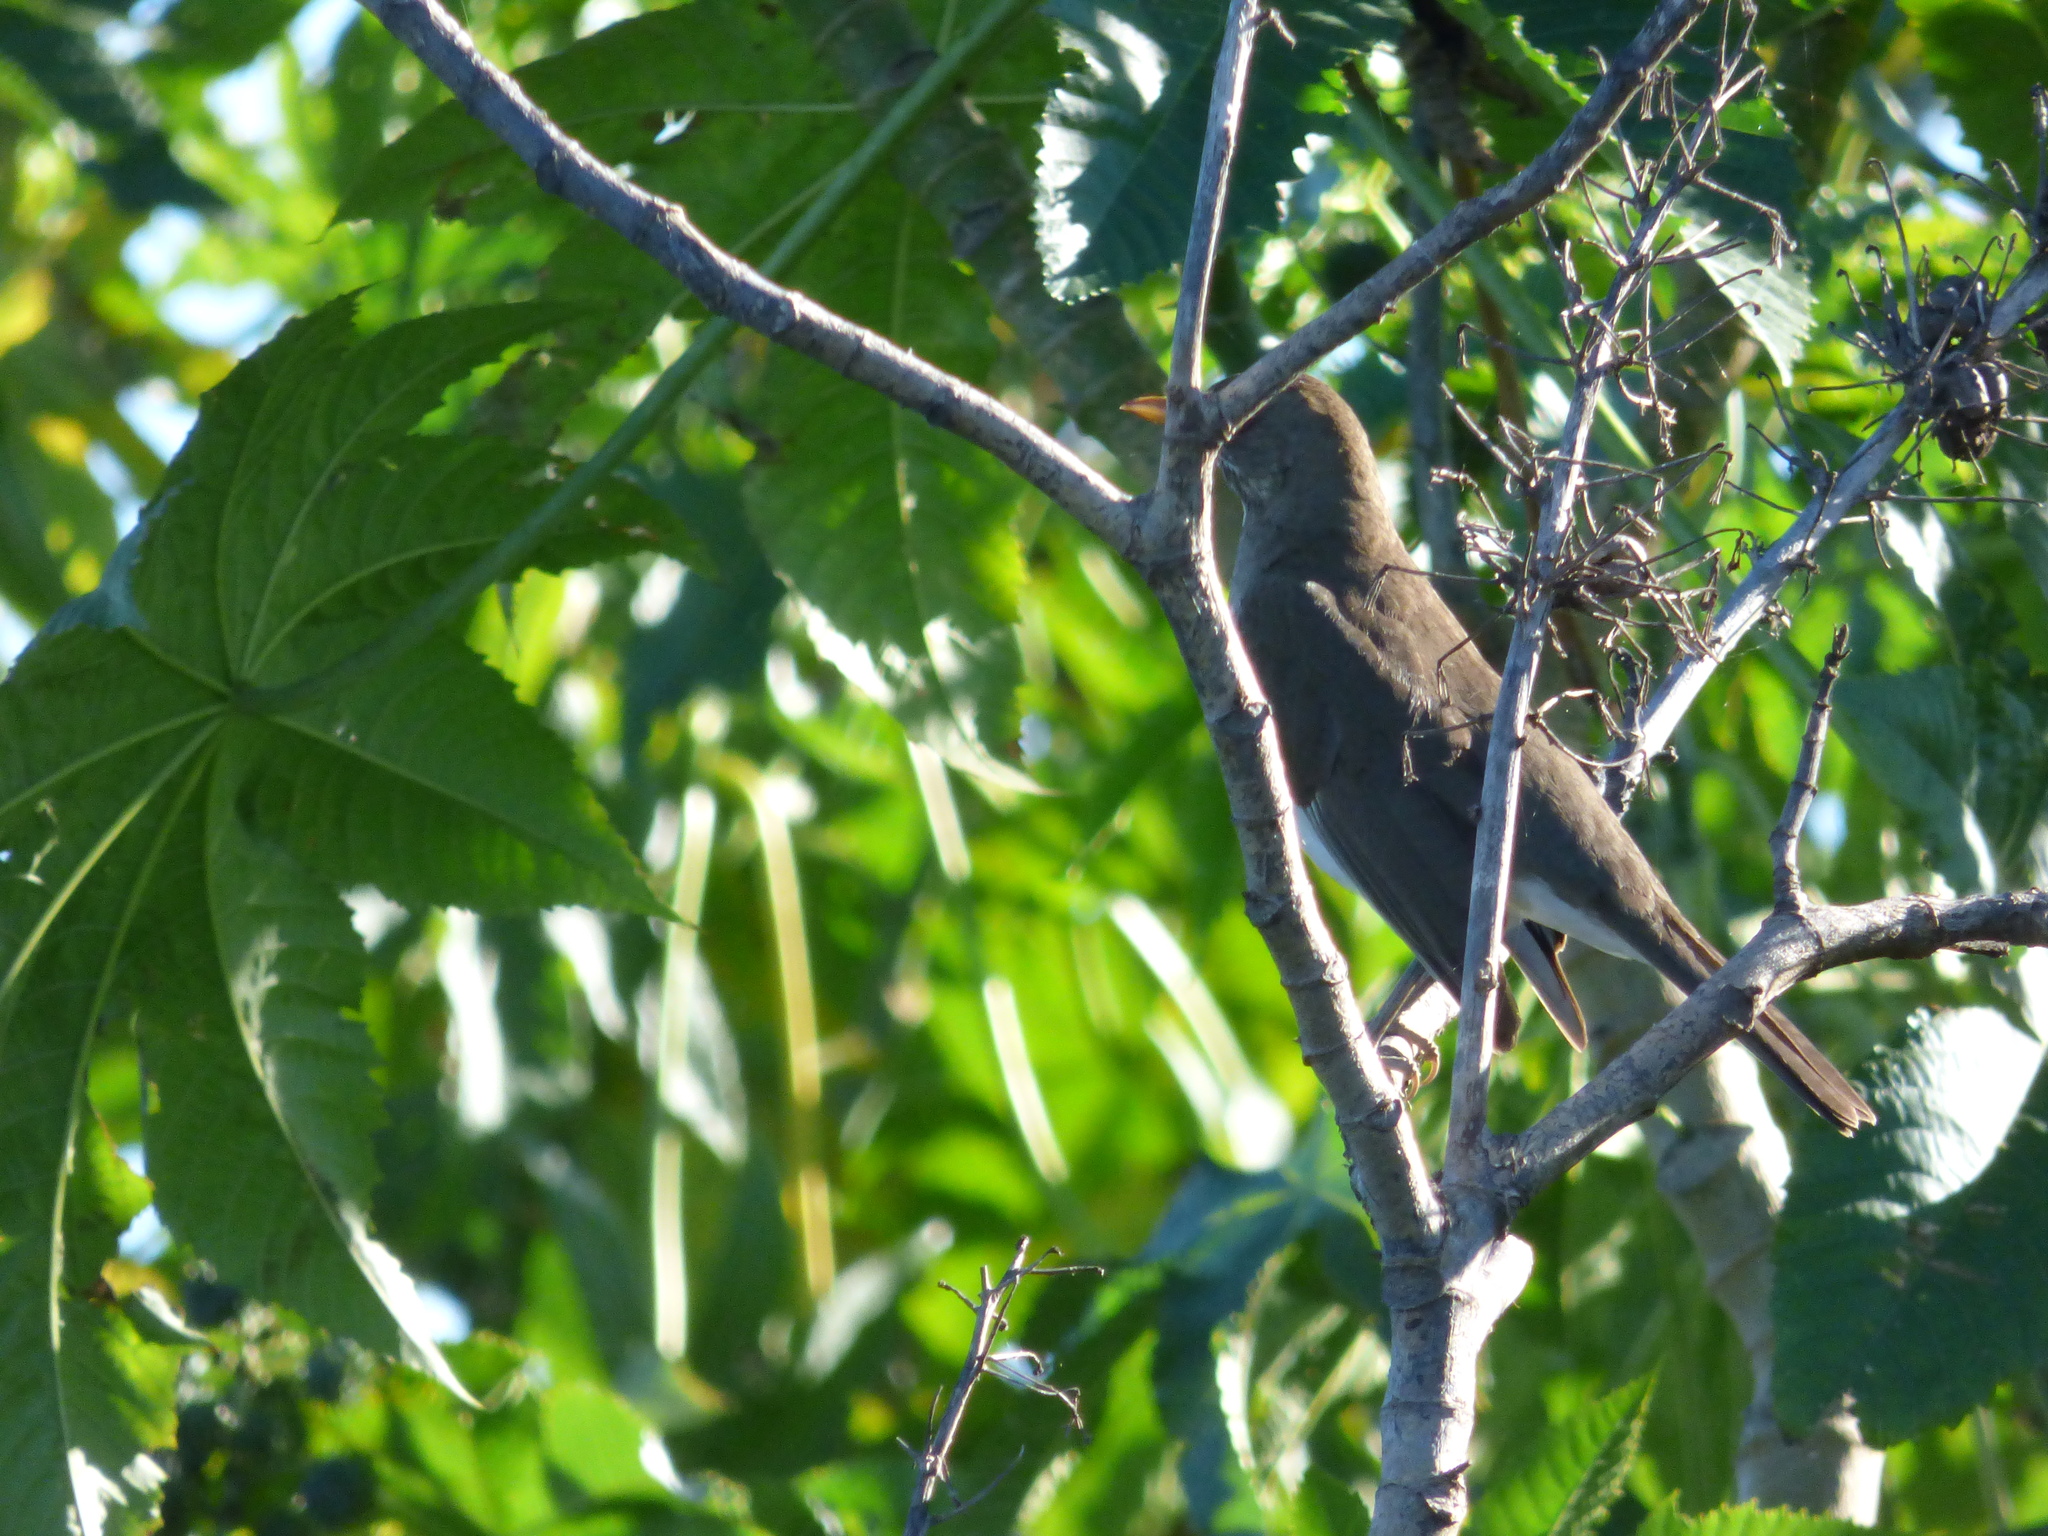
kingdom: Animalia
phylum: Chordata
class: Aves
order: Passeriformes
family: Turdidae
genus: Turdus
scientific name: Turdus amaurochalinus
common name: Creamy-bellied thrush
